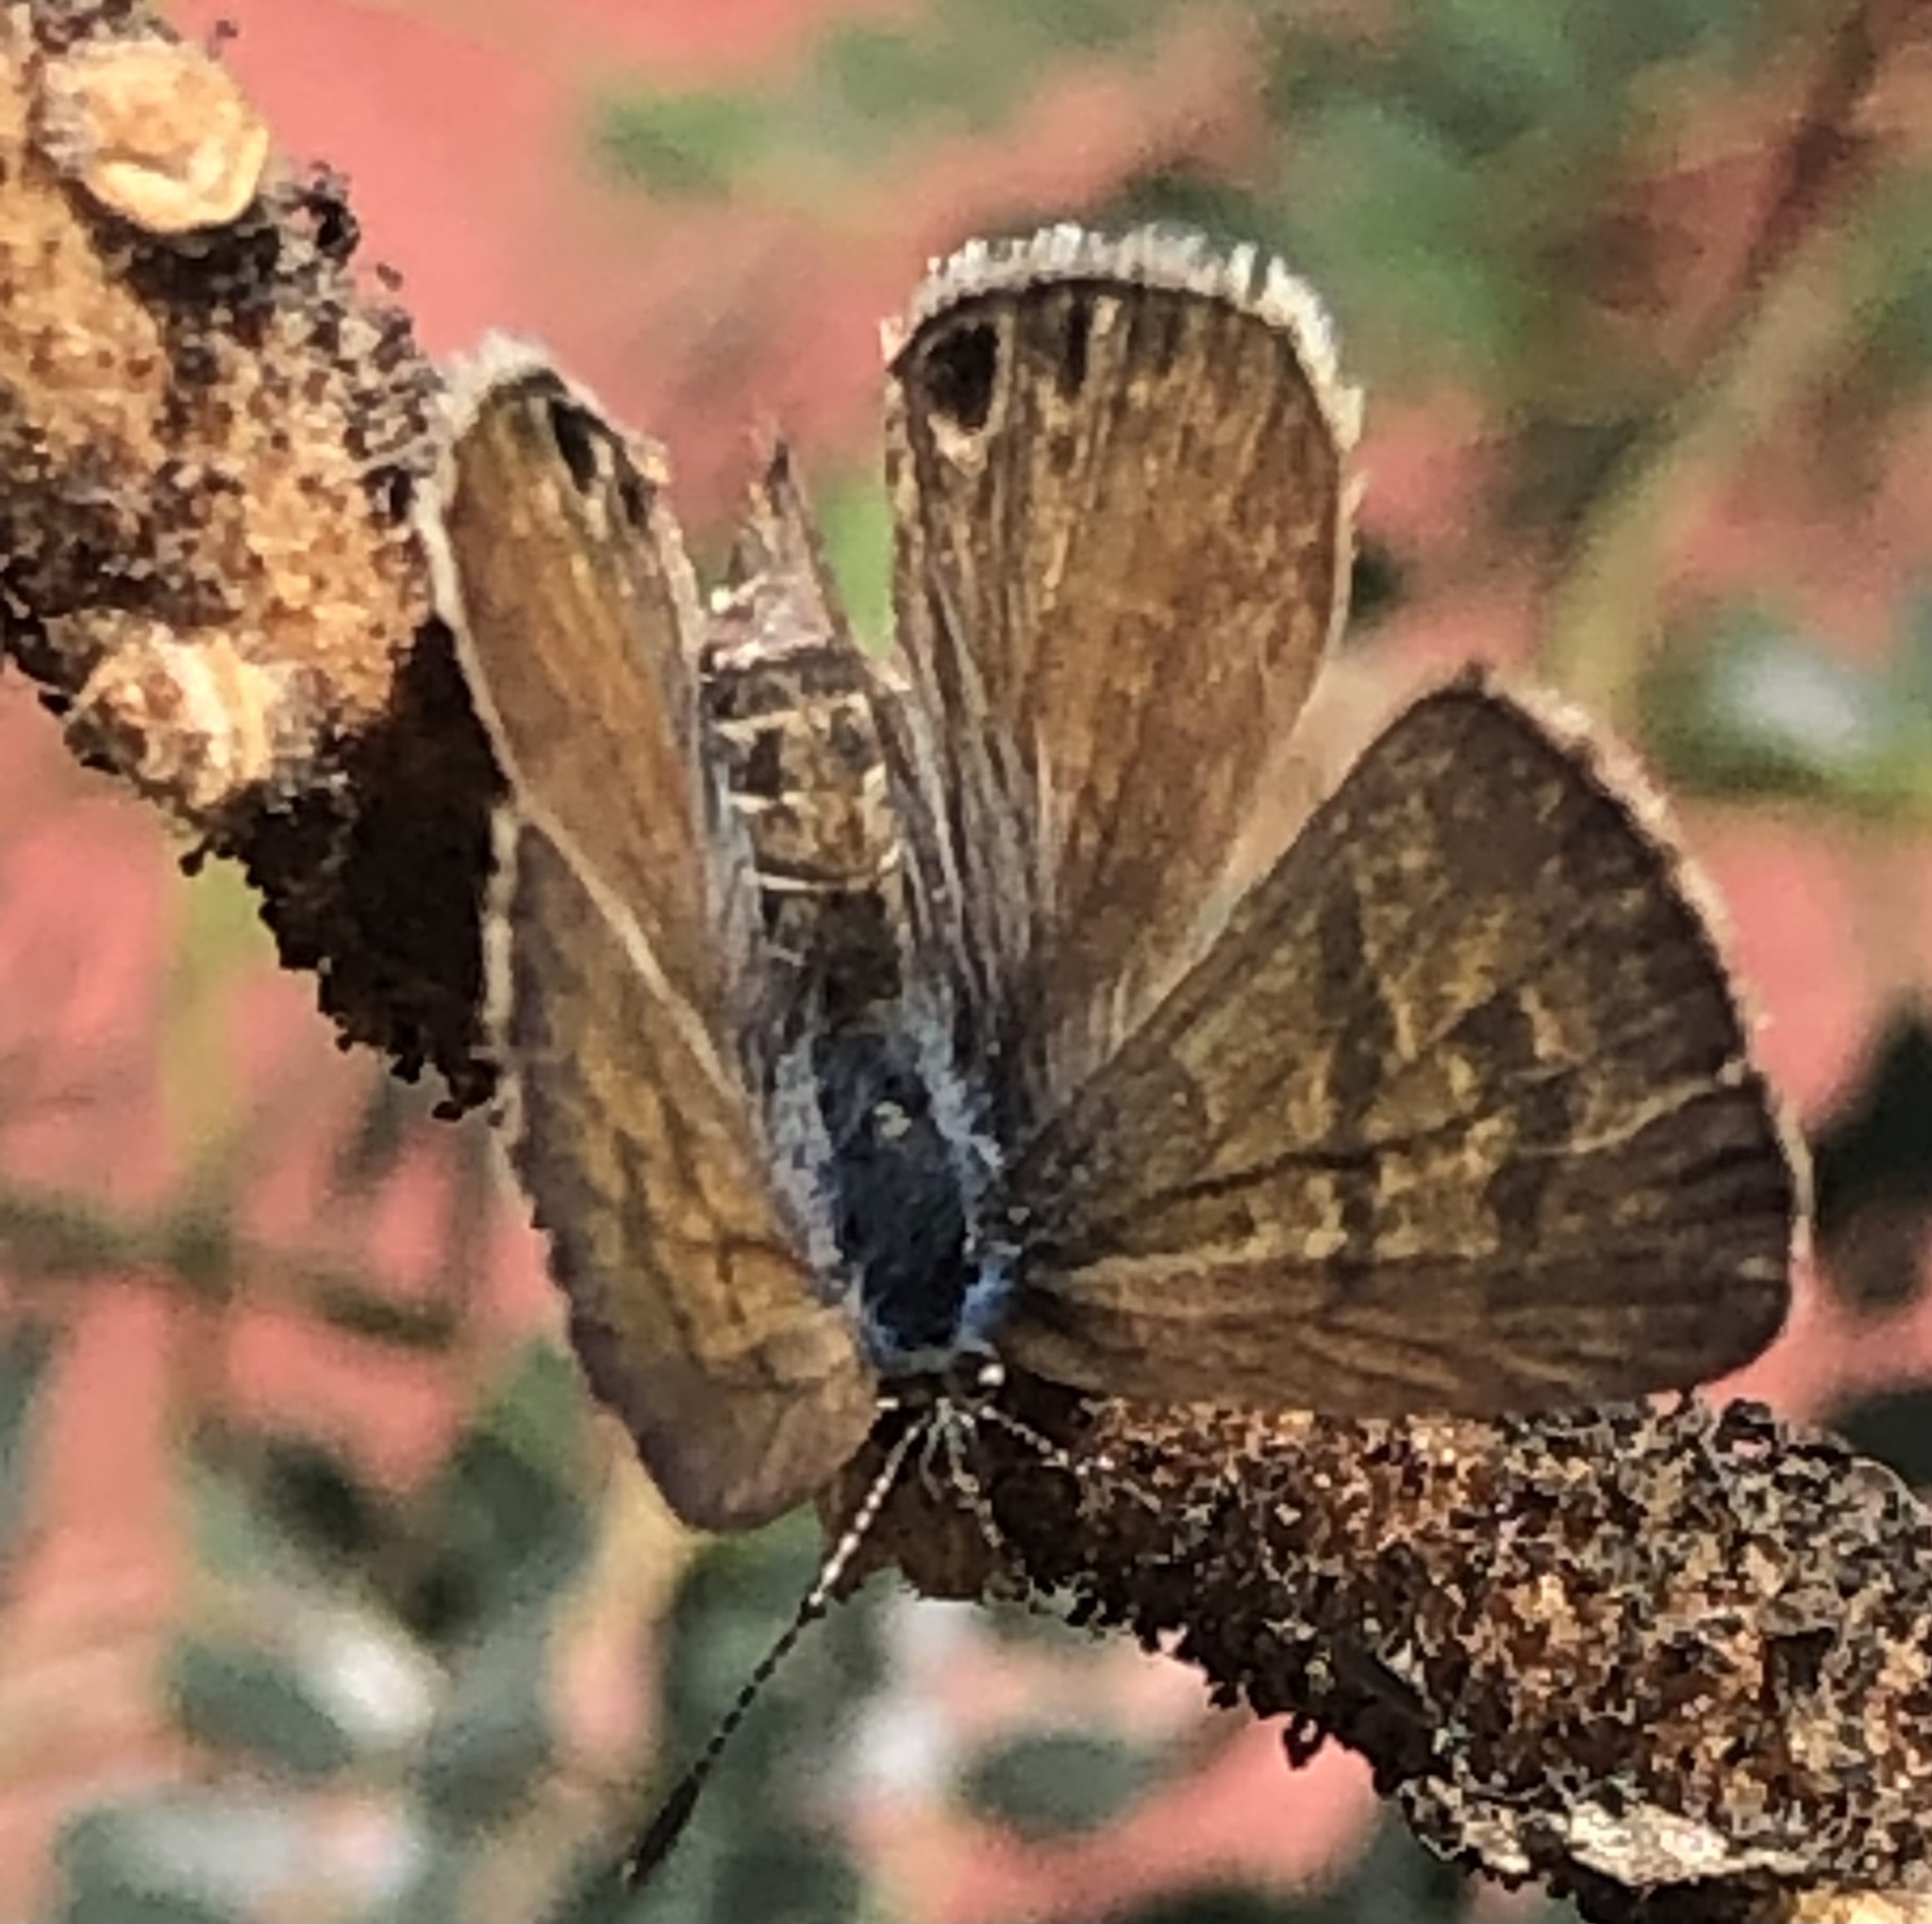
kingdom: Animalia
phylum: Arthropoda
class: Insecta
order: Lepidoptera
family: Lycaenidae
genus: Leptotes
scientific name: Leptotes trigemmatus
